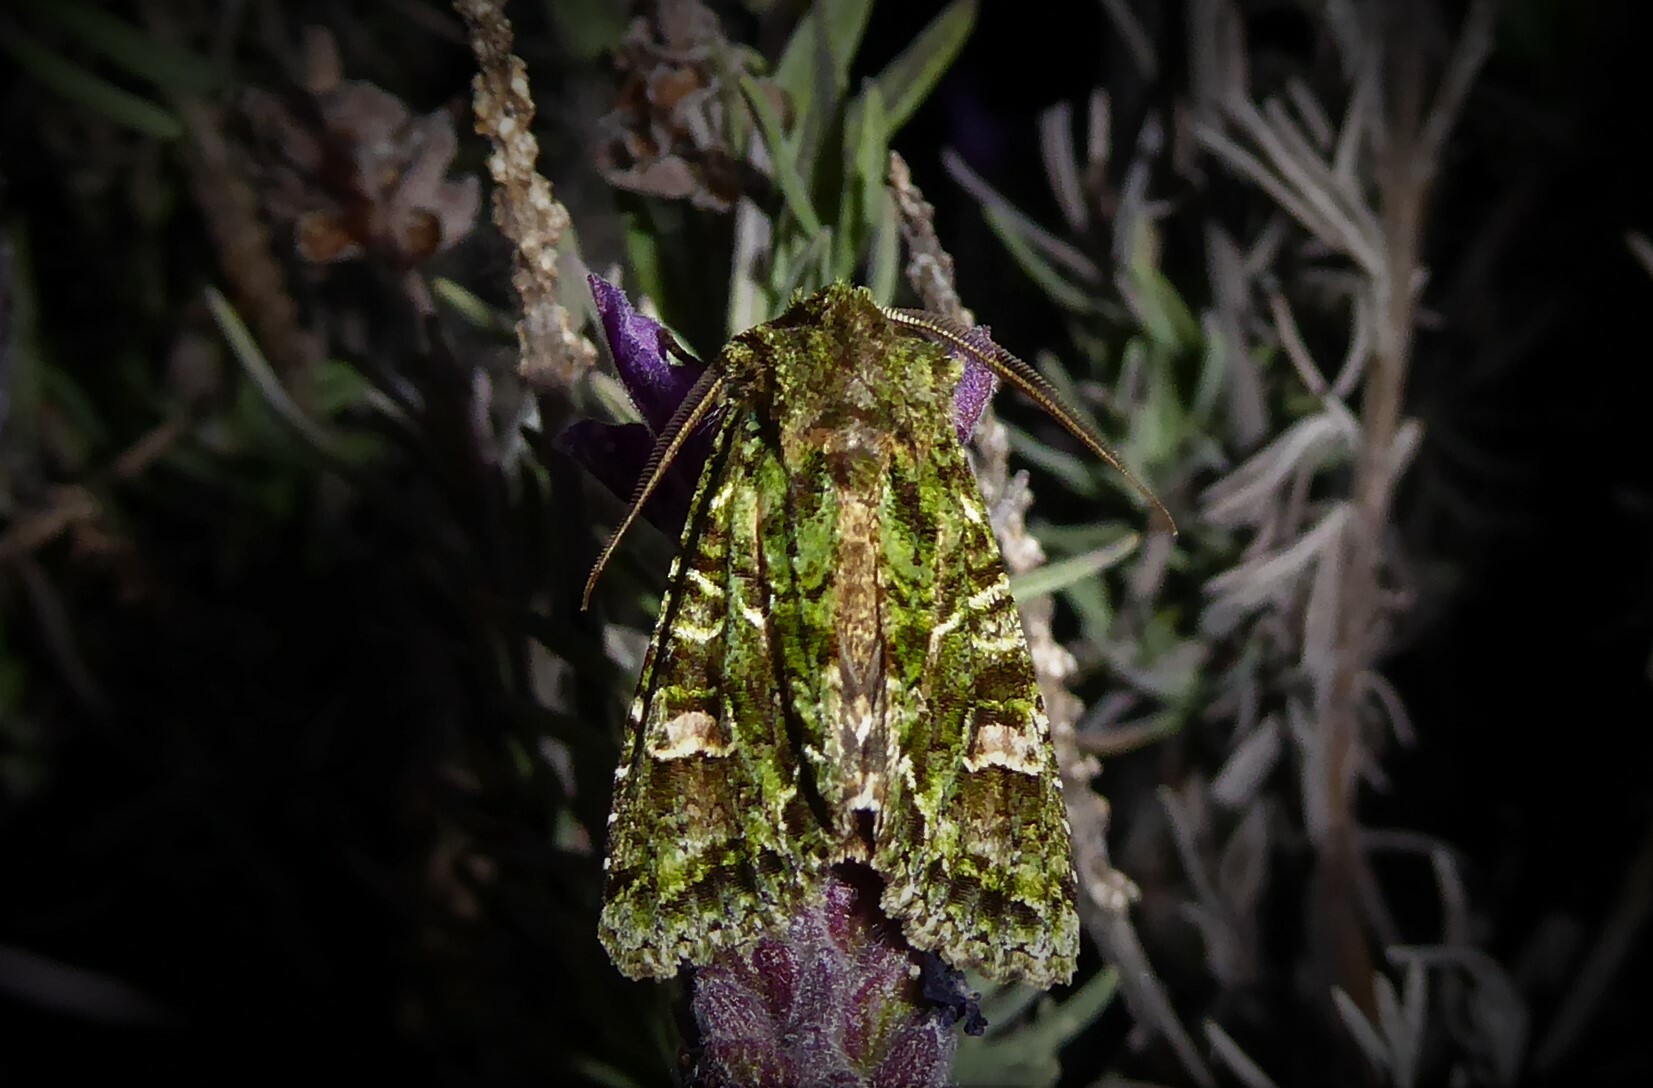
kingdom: Animalia
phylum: Arthropoda
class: Insecta
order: Lepidoptera
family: Noctuidae
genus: Ichneutica
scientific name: Ichneutica
